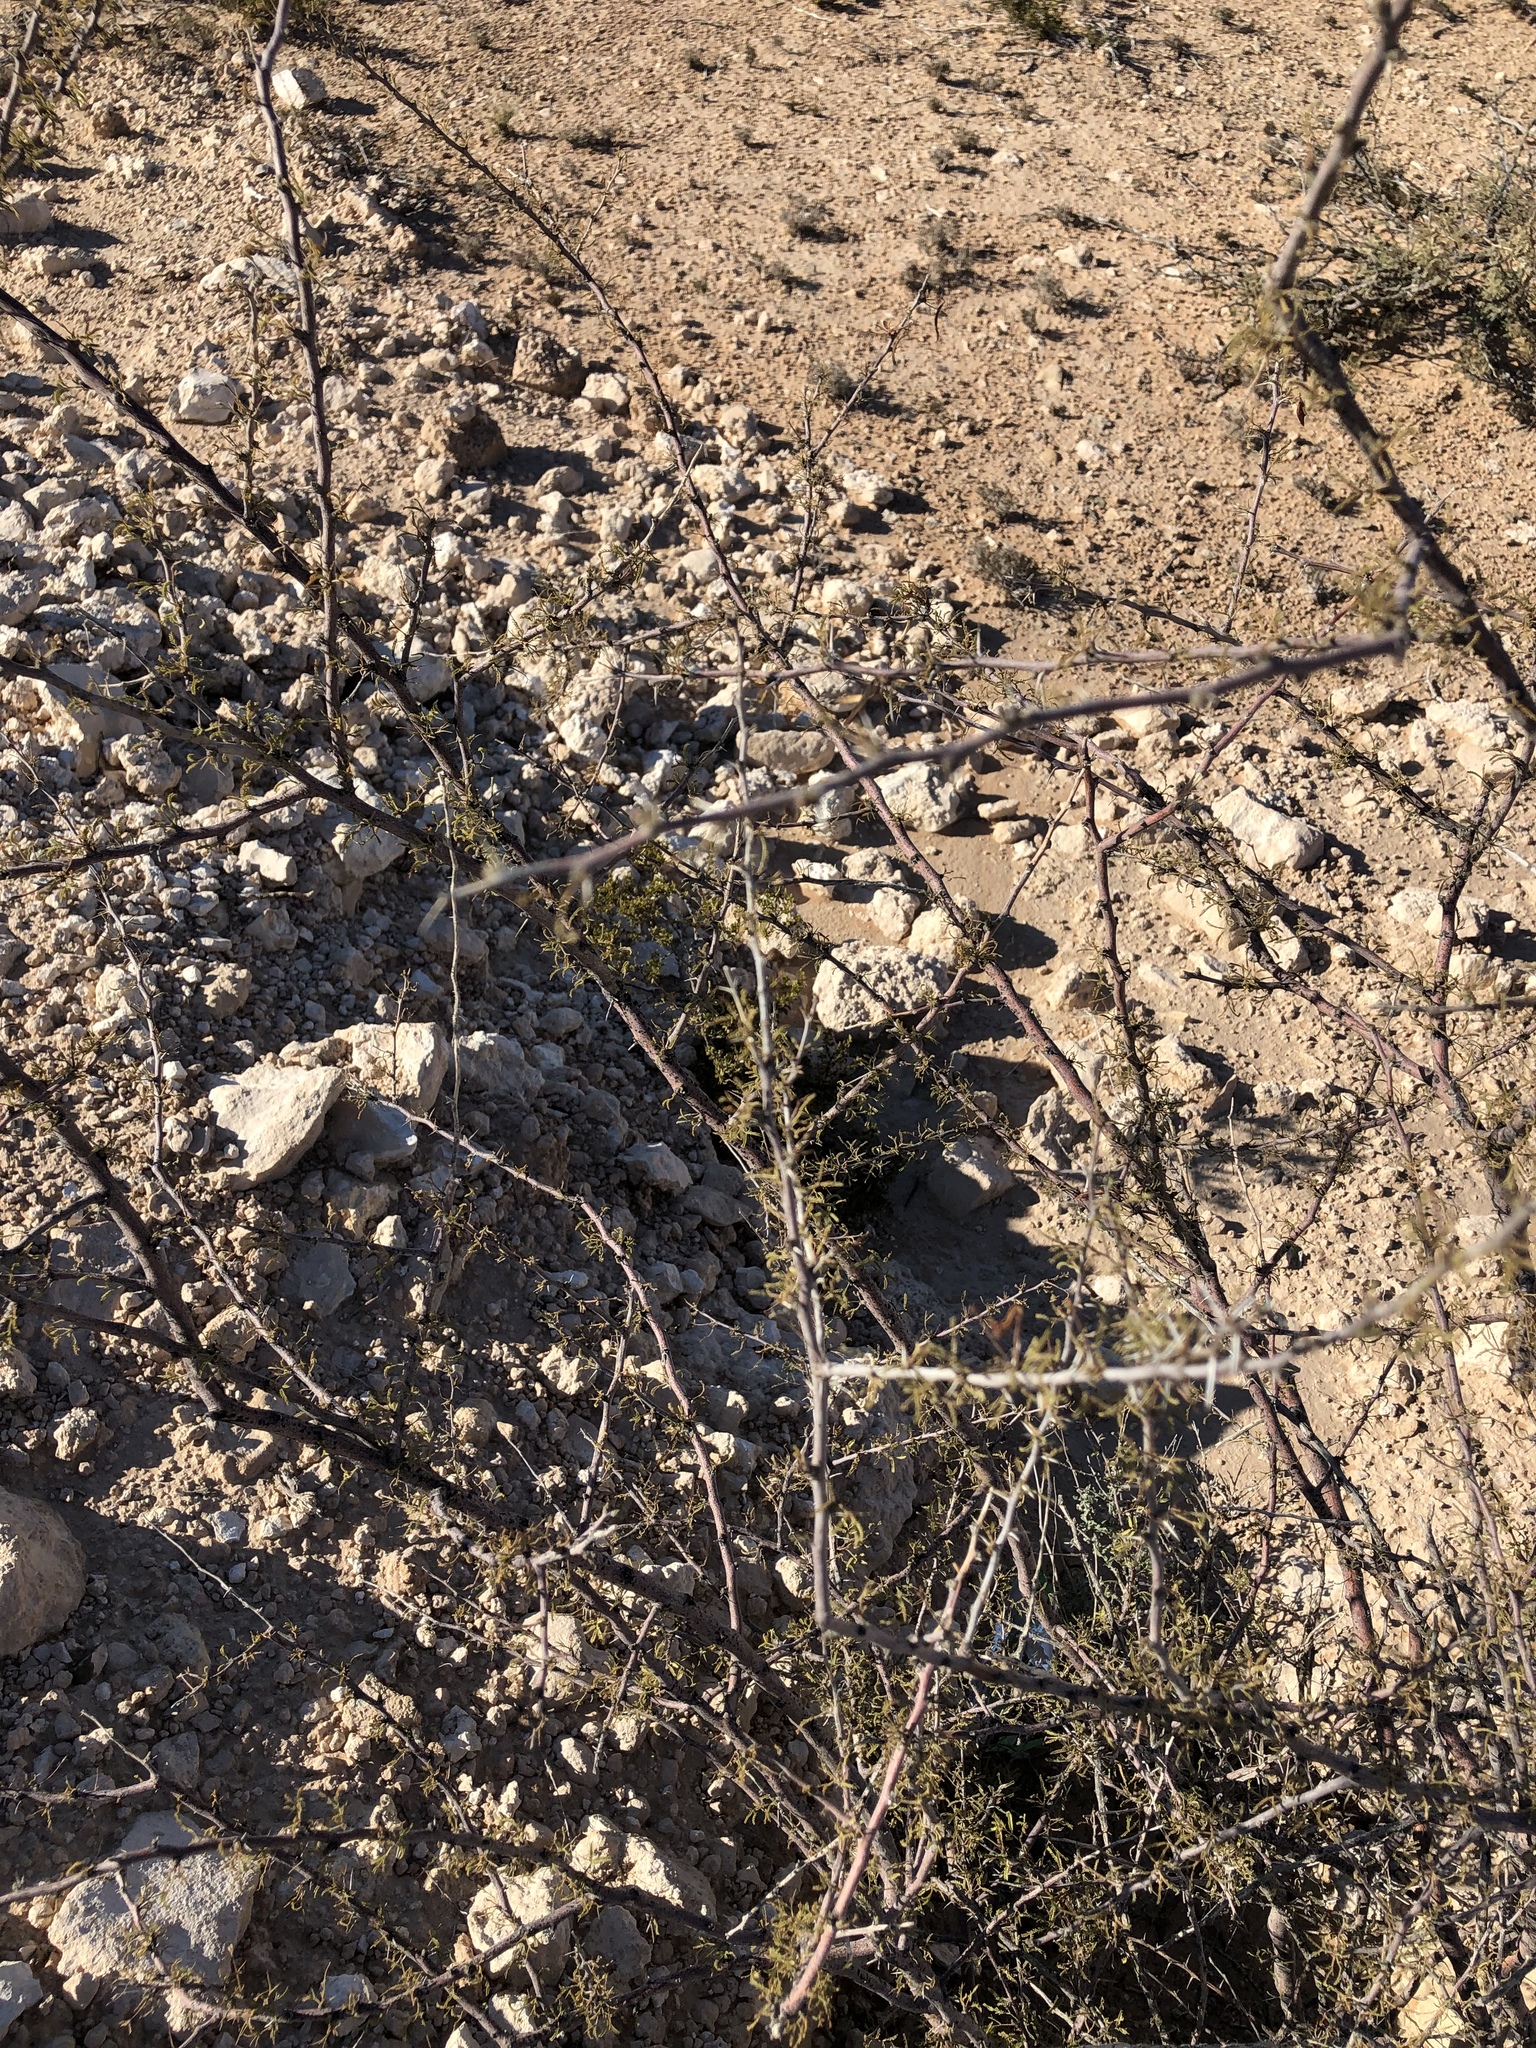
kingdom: Plantae
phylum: Tracheophyta
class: Magnoliopsida
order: Fabales
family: Fabaceae
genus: Vachellia
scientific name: Vachellia vernicosa
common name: Viscid acacia
